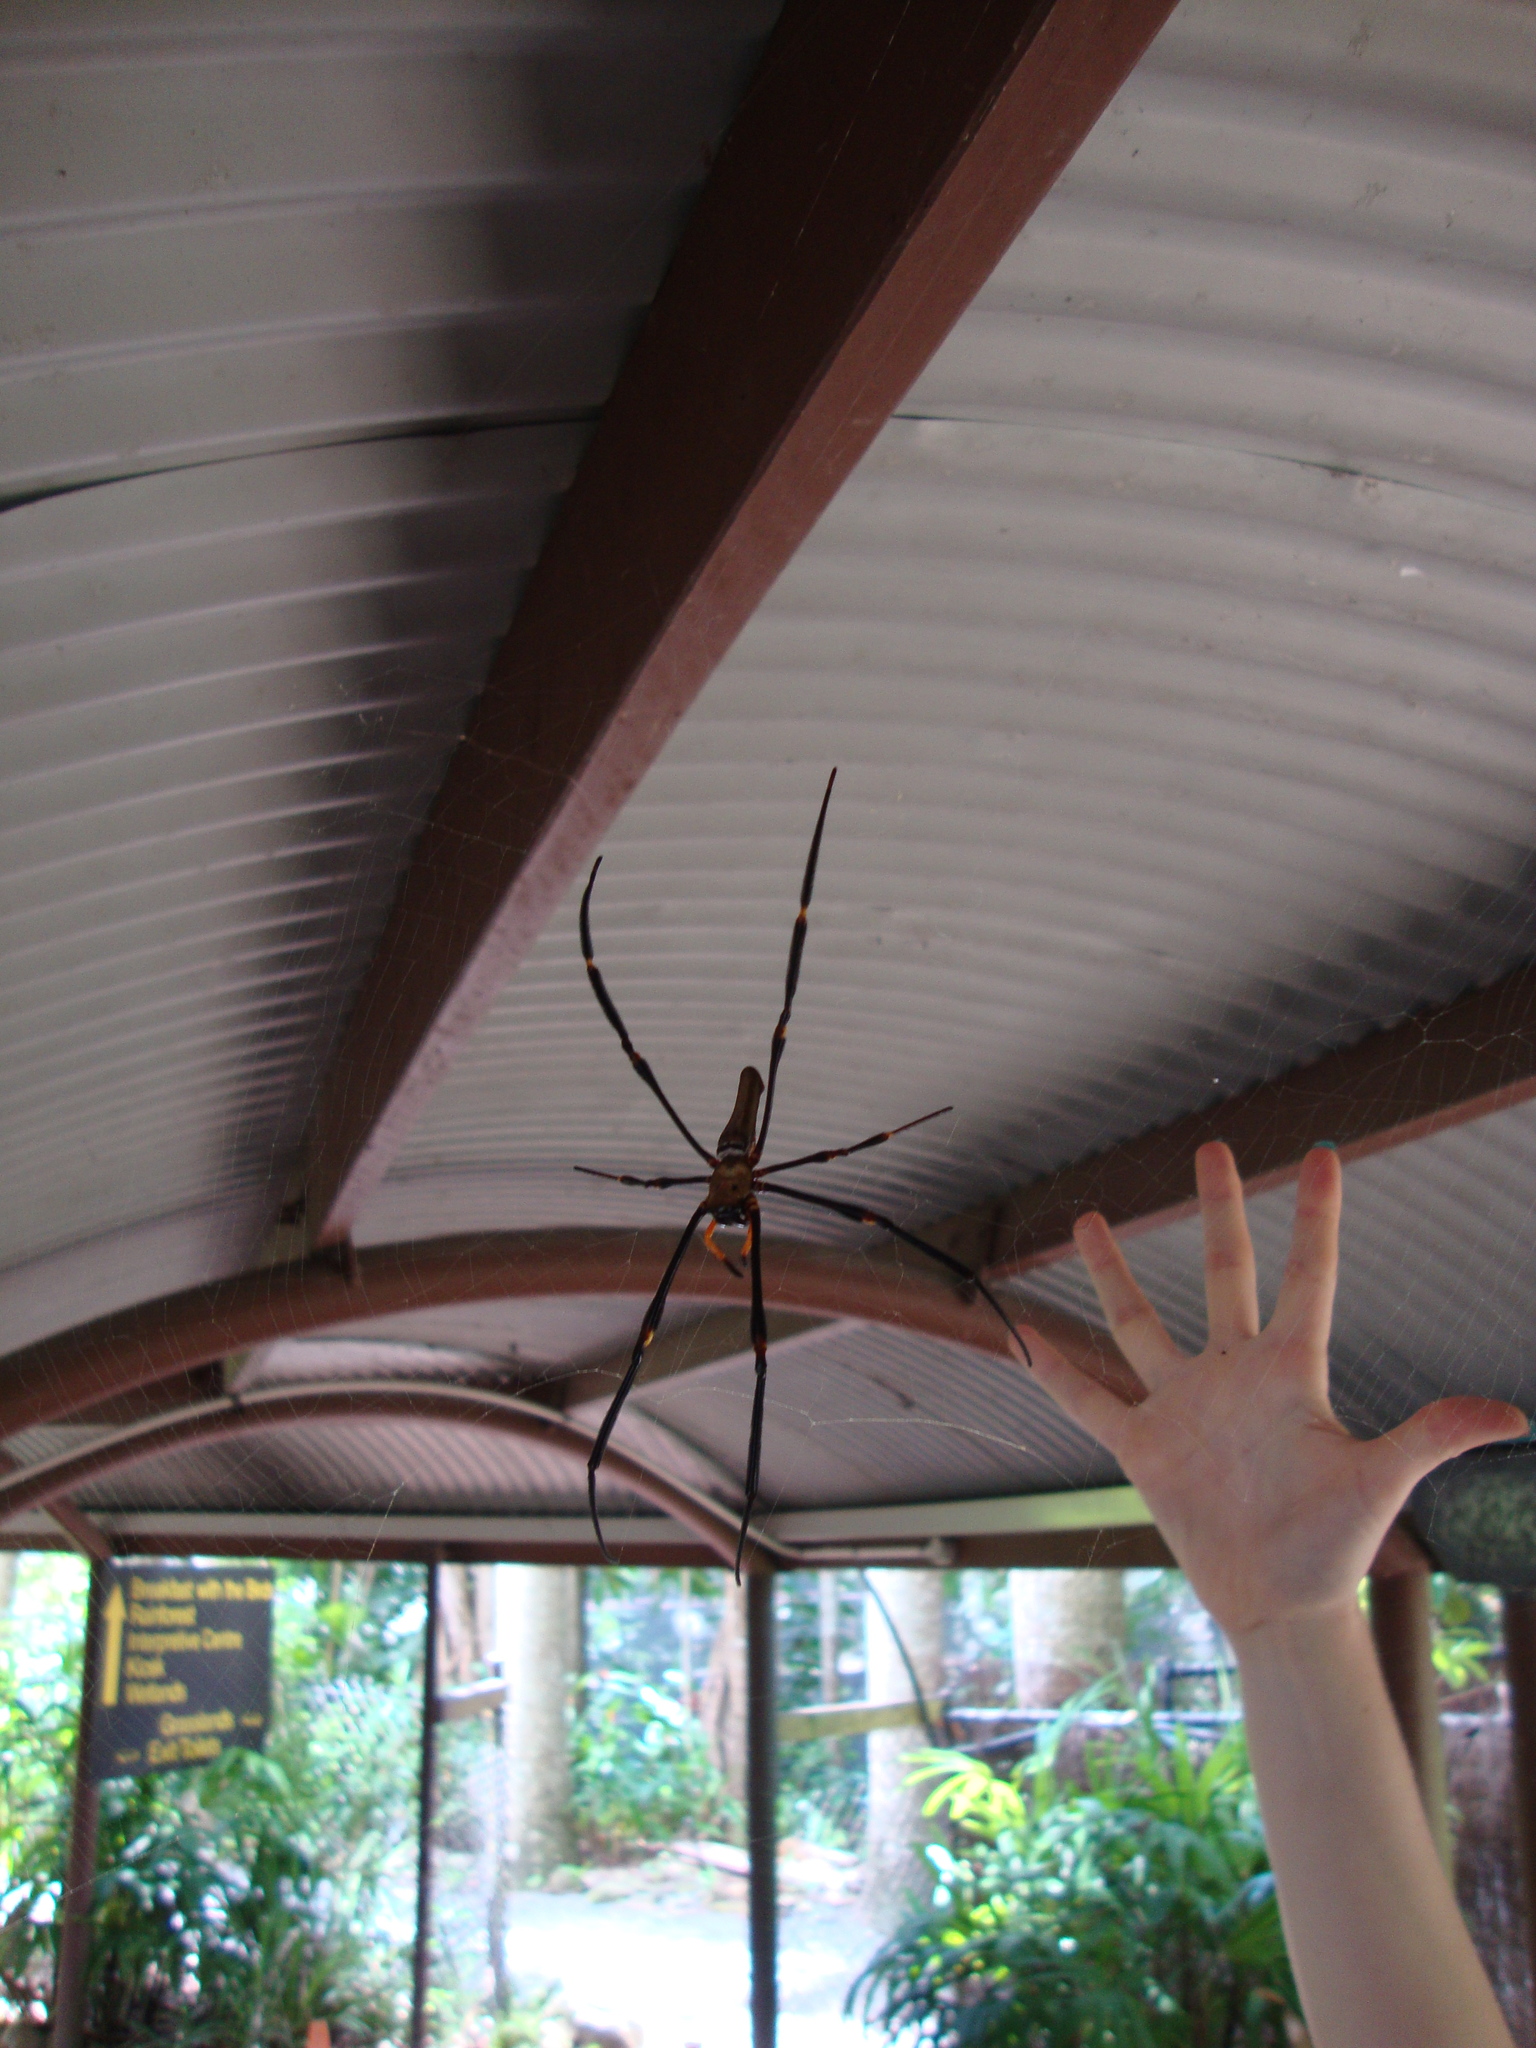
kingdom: Animalia
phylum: Arthropoda
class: Arachnida
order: Araneae
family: Araneidae
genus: Nephila
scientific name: Nephila pilipes
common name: Giant golden orb weaver
